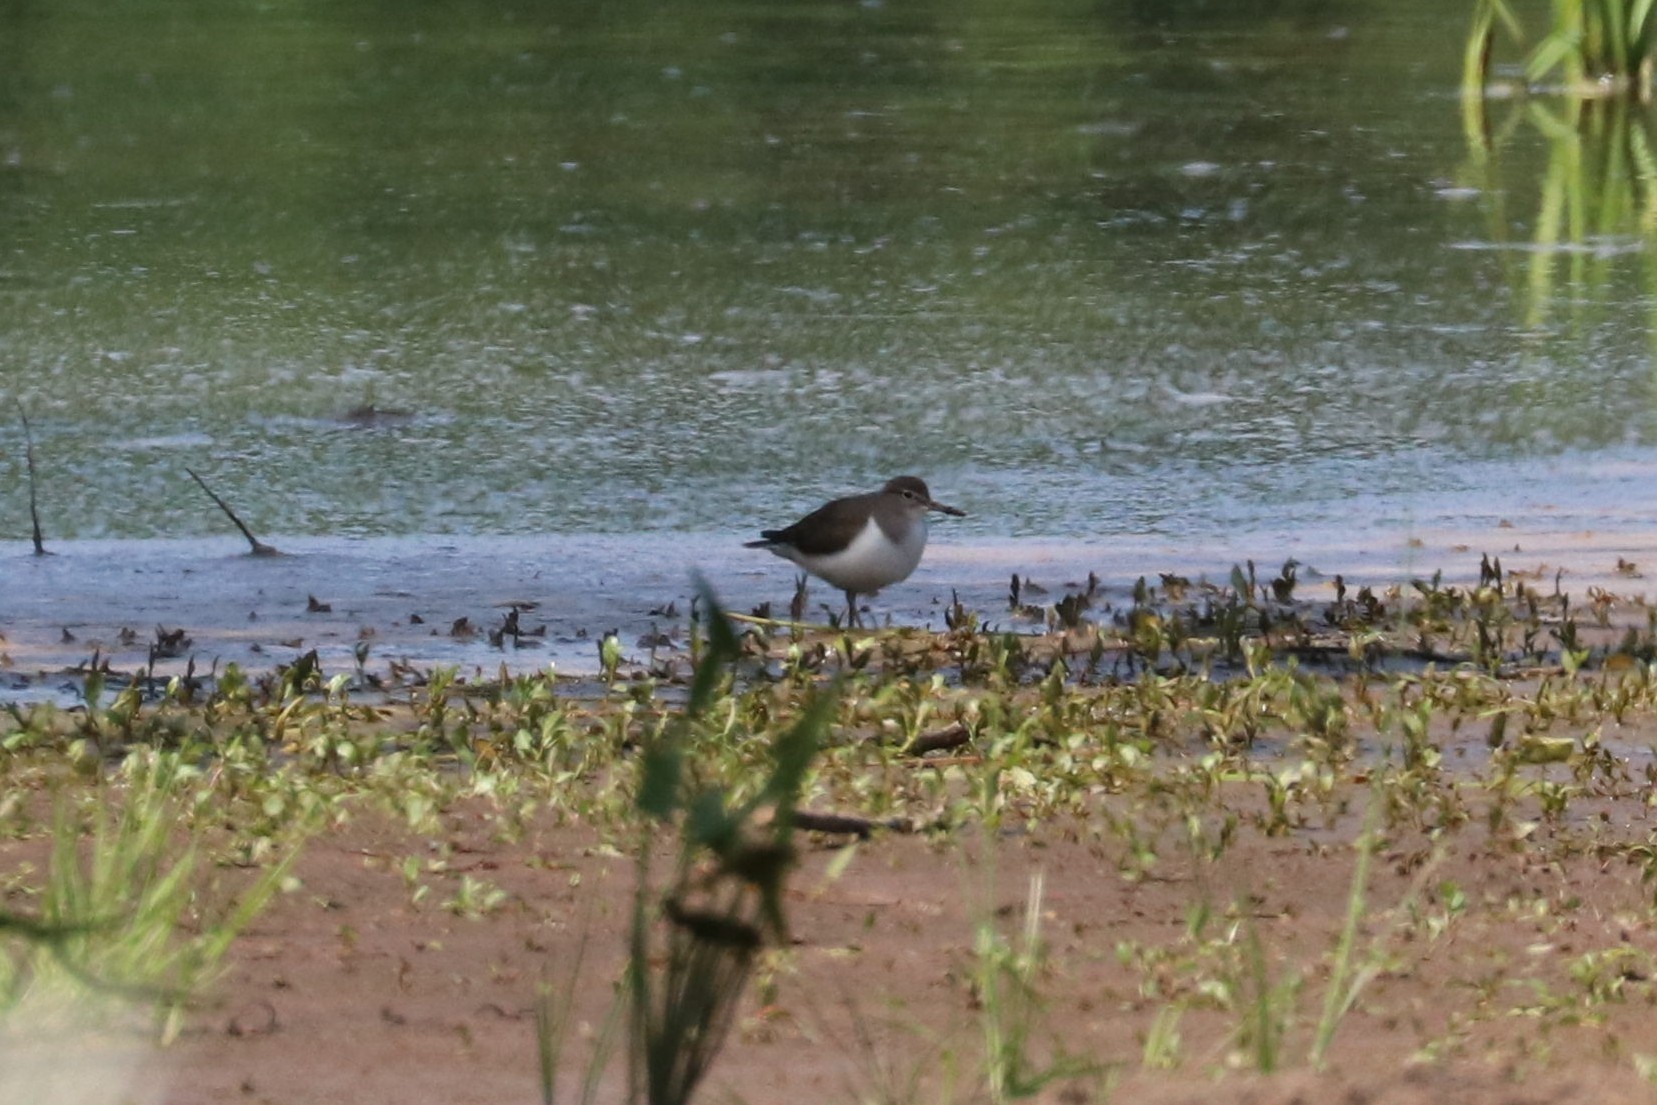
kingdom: Animalia
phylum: Chordata
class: Aves
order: Charadriiformes
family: Scolopacidae
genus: Actitis
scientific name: Actitis hypoleucos
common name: Common sandpiper
